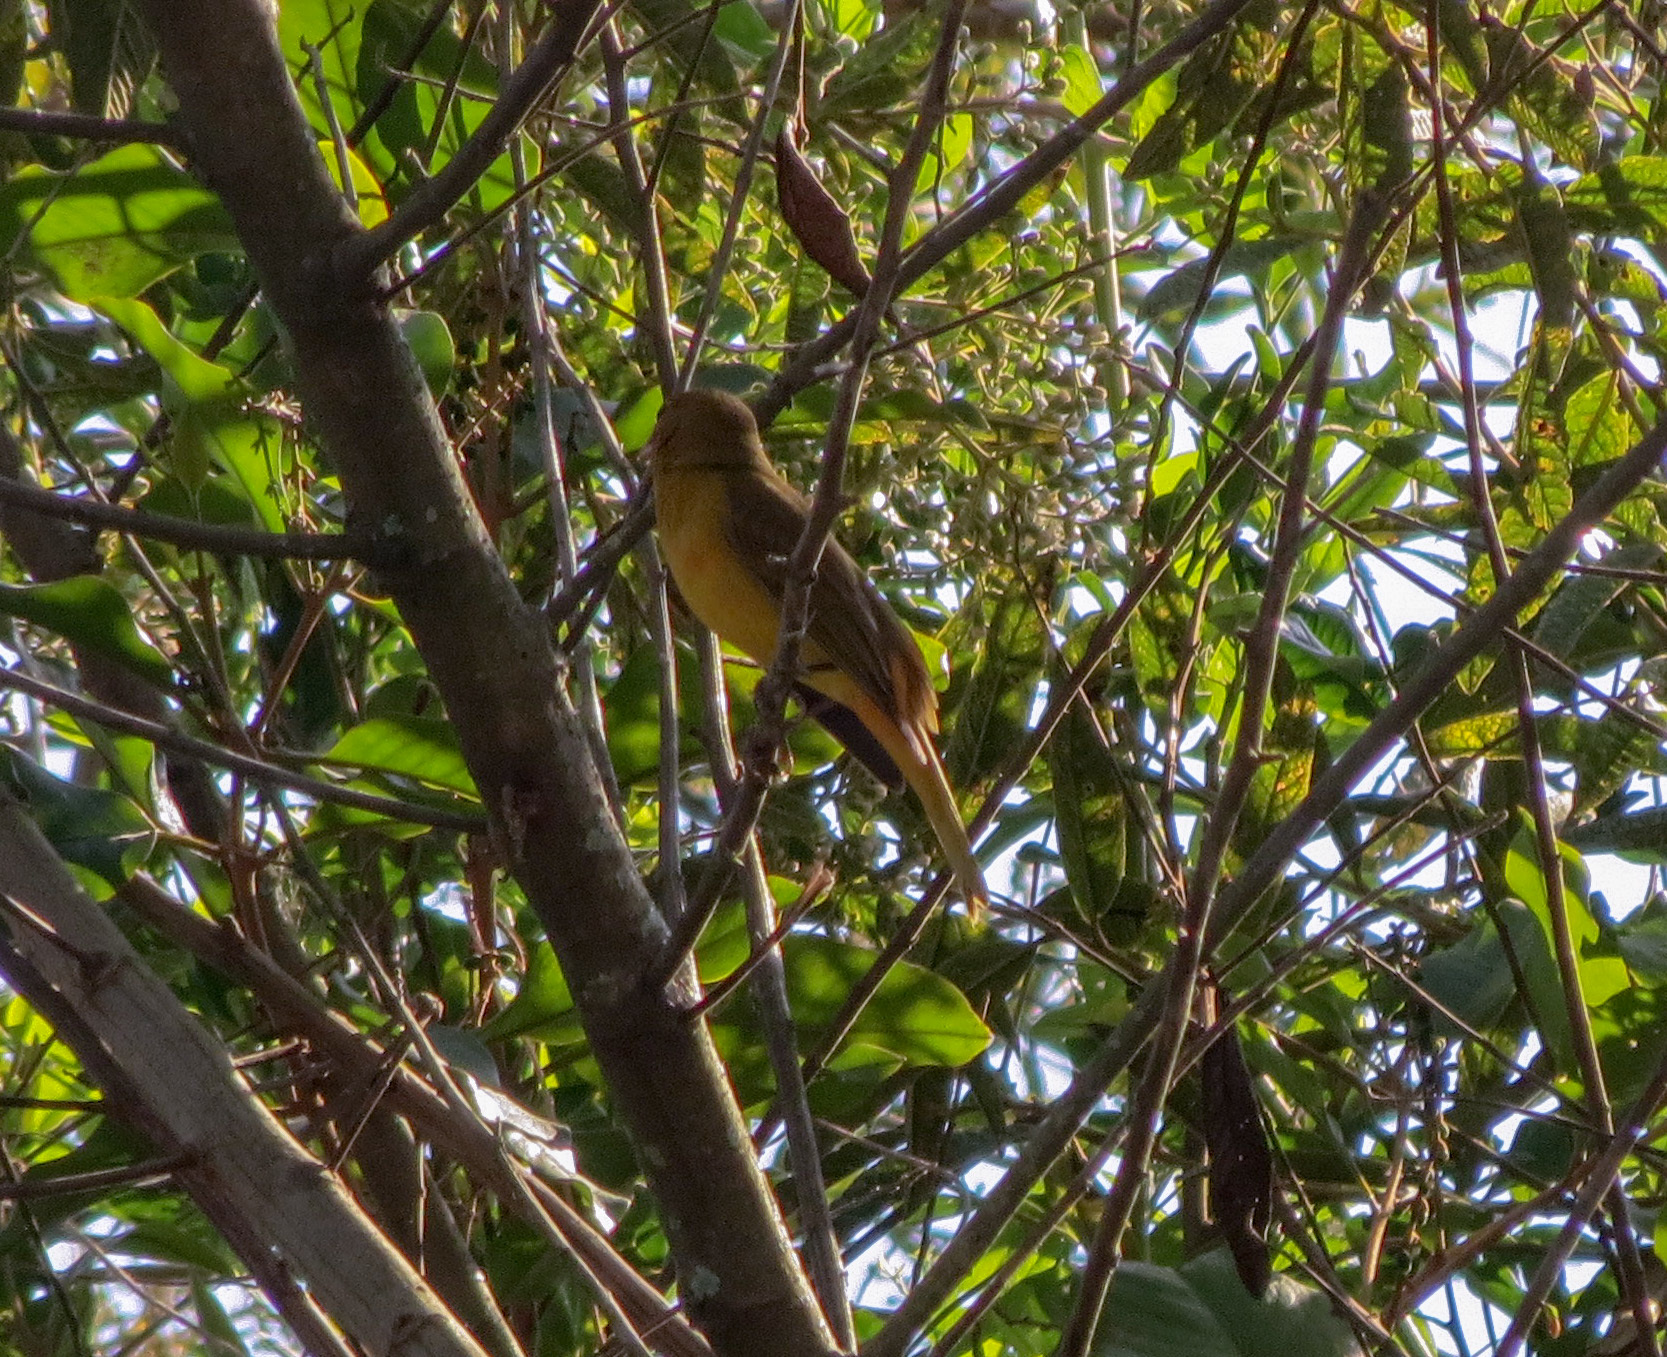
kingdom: Animalia
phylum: Chordata
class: Aves
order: Passeriformes
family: Cardinalidae
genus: Piranga
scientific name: Piranga rubra
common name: Summer tanager
